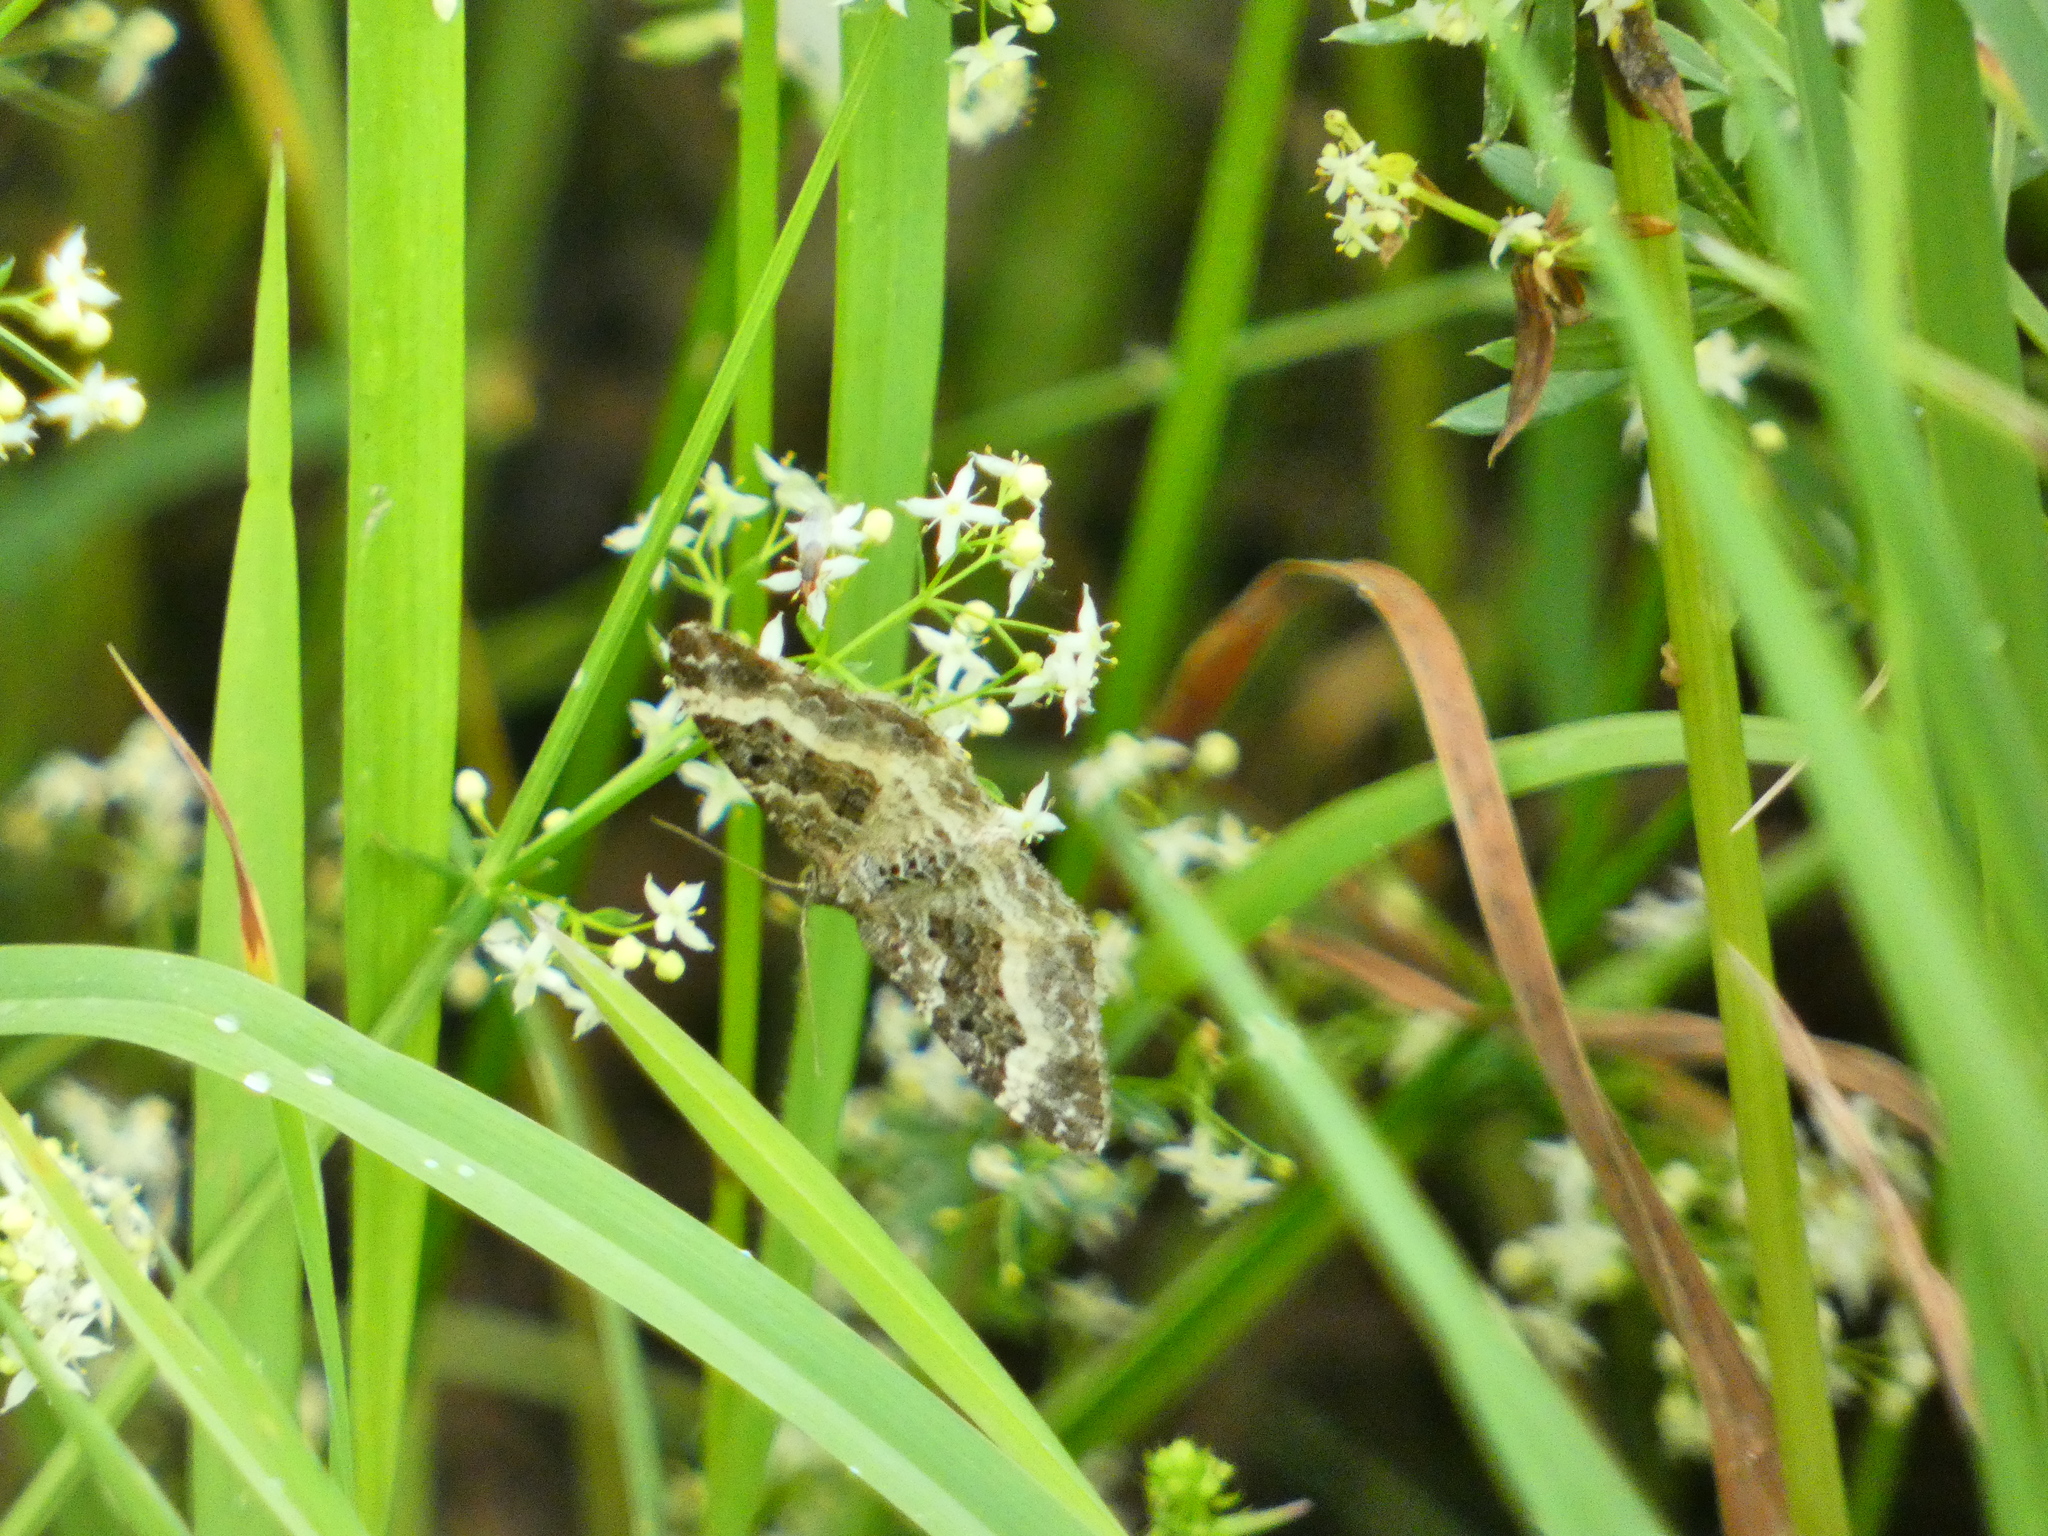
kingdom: Animalia
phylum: Arthropoda
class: Insecta
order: Lepidoptera
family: Geometridae
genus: Epirrhoe
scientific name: Epirrhoe alternata
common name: Common carpet
